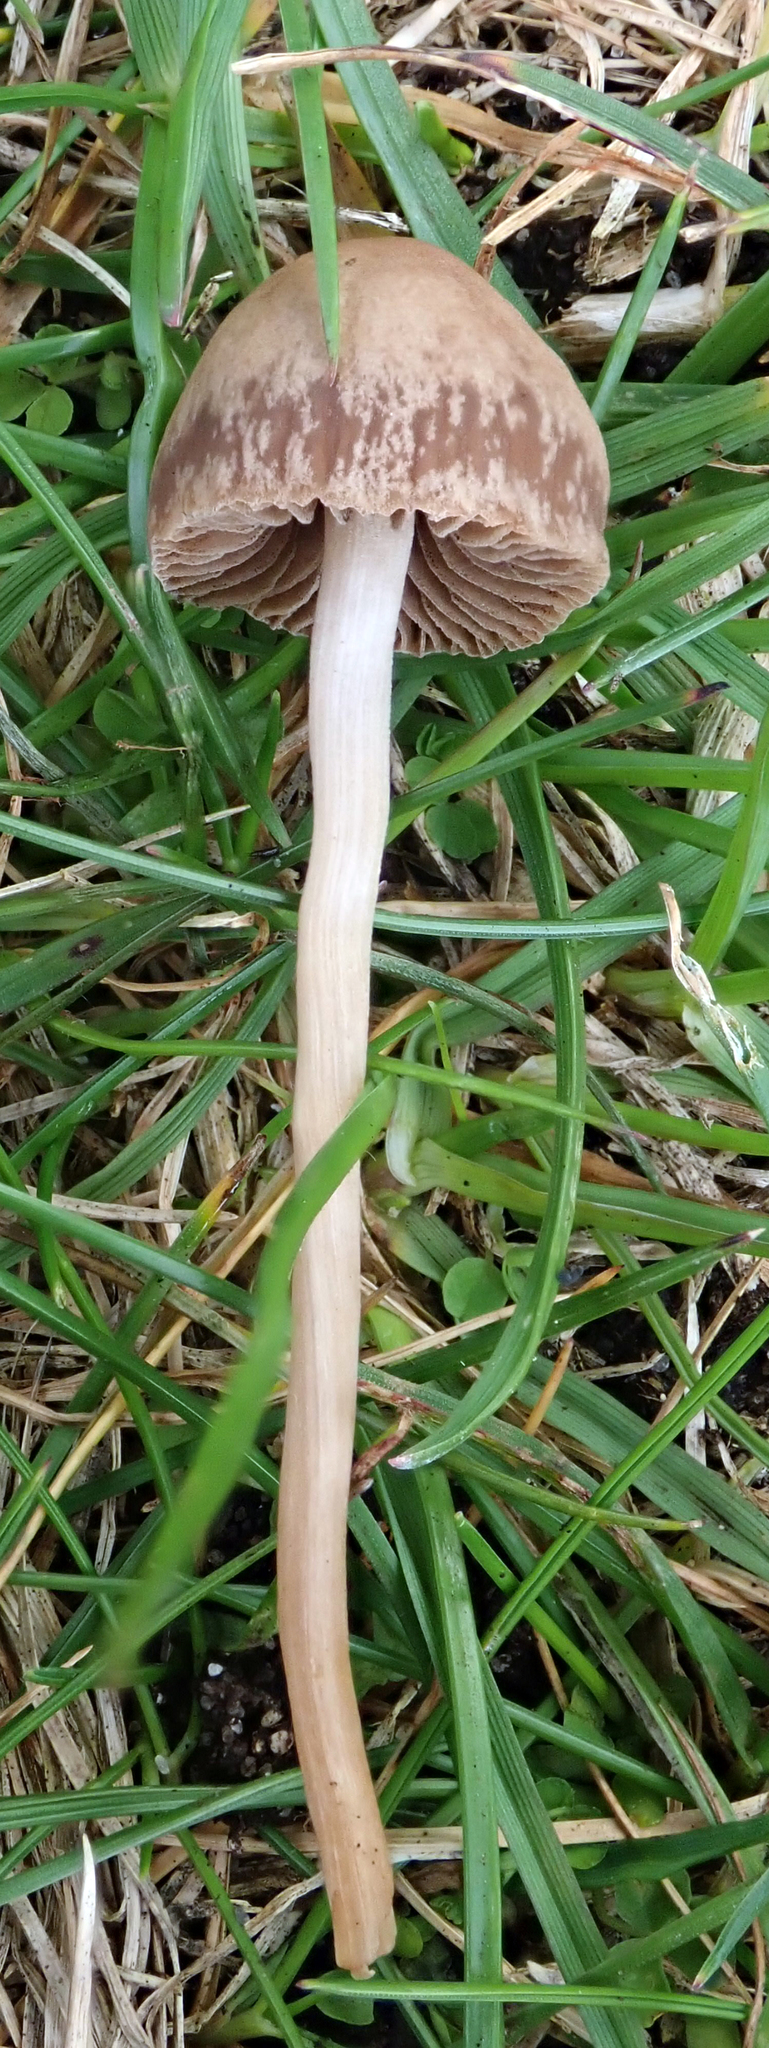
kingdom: Fungi
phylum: Basidiomycota
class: Agaricomycetes
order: Agaricales
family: Bolbitiaceae
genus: Panaeolina
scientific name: Panaeolina foenisecii
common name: Brown hay cap
